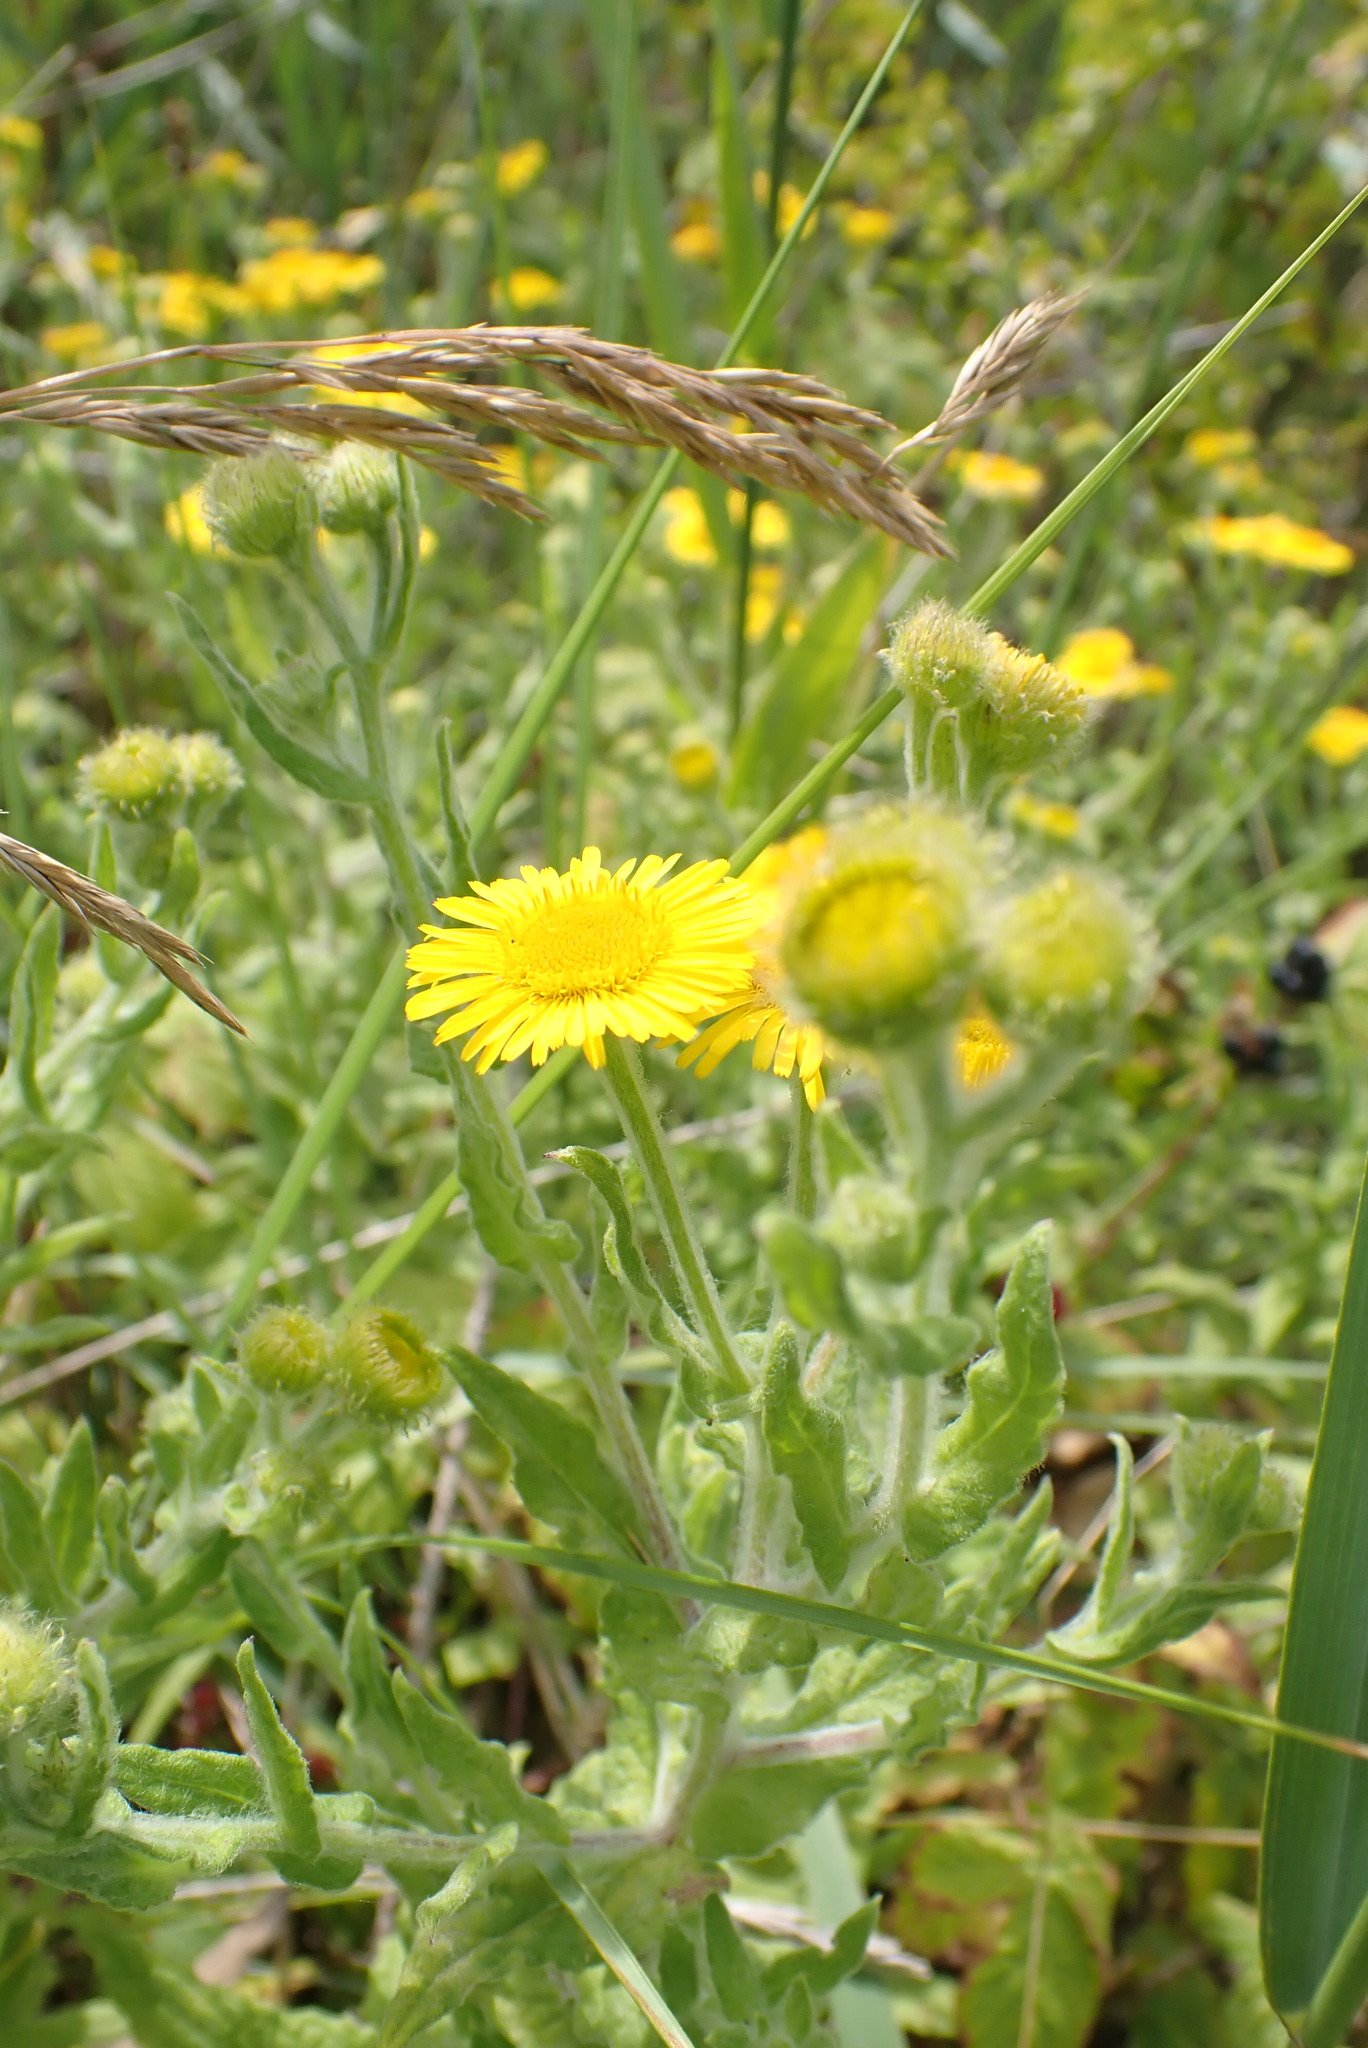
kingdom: Plantae
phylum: Tracheophyta
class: Magnoliopsida
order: Asterales
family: Asteraceae
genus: Pulicaria
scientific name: Pulicaria dysenterica
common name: Common fleabane
